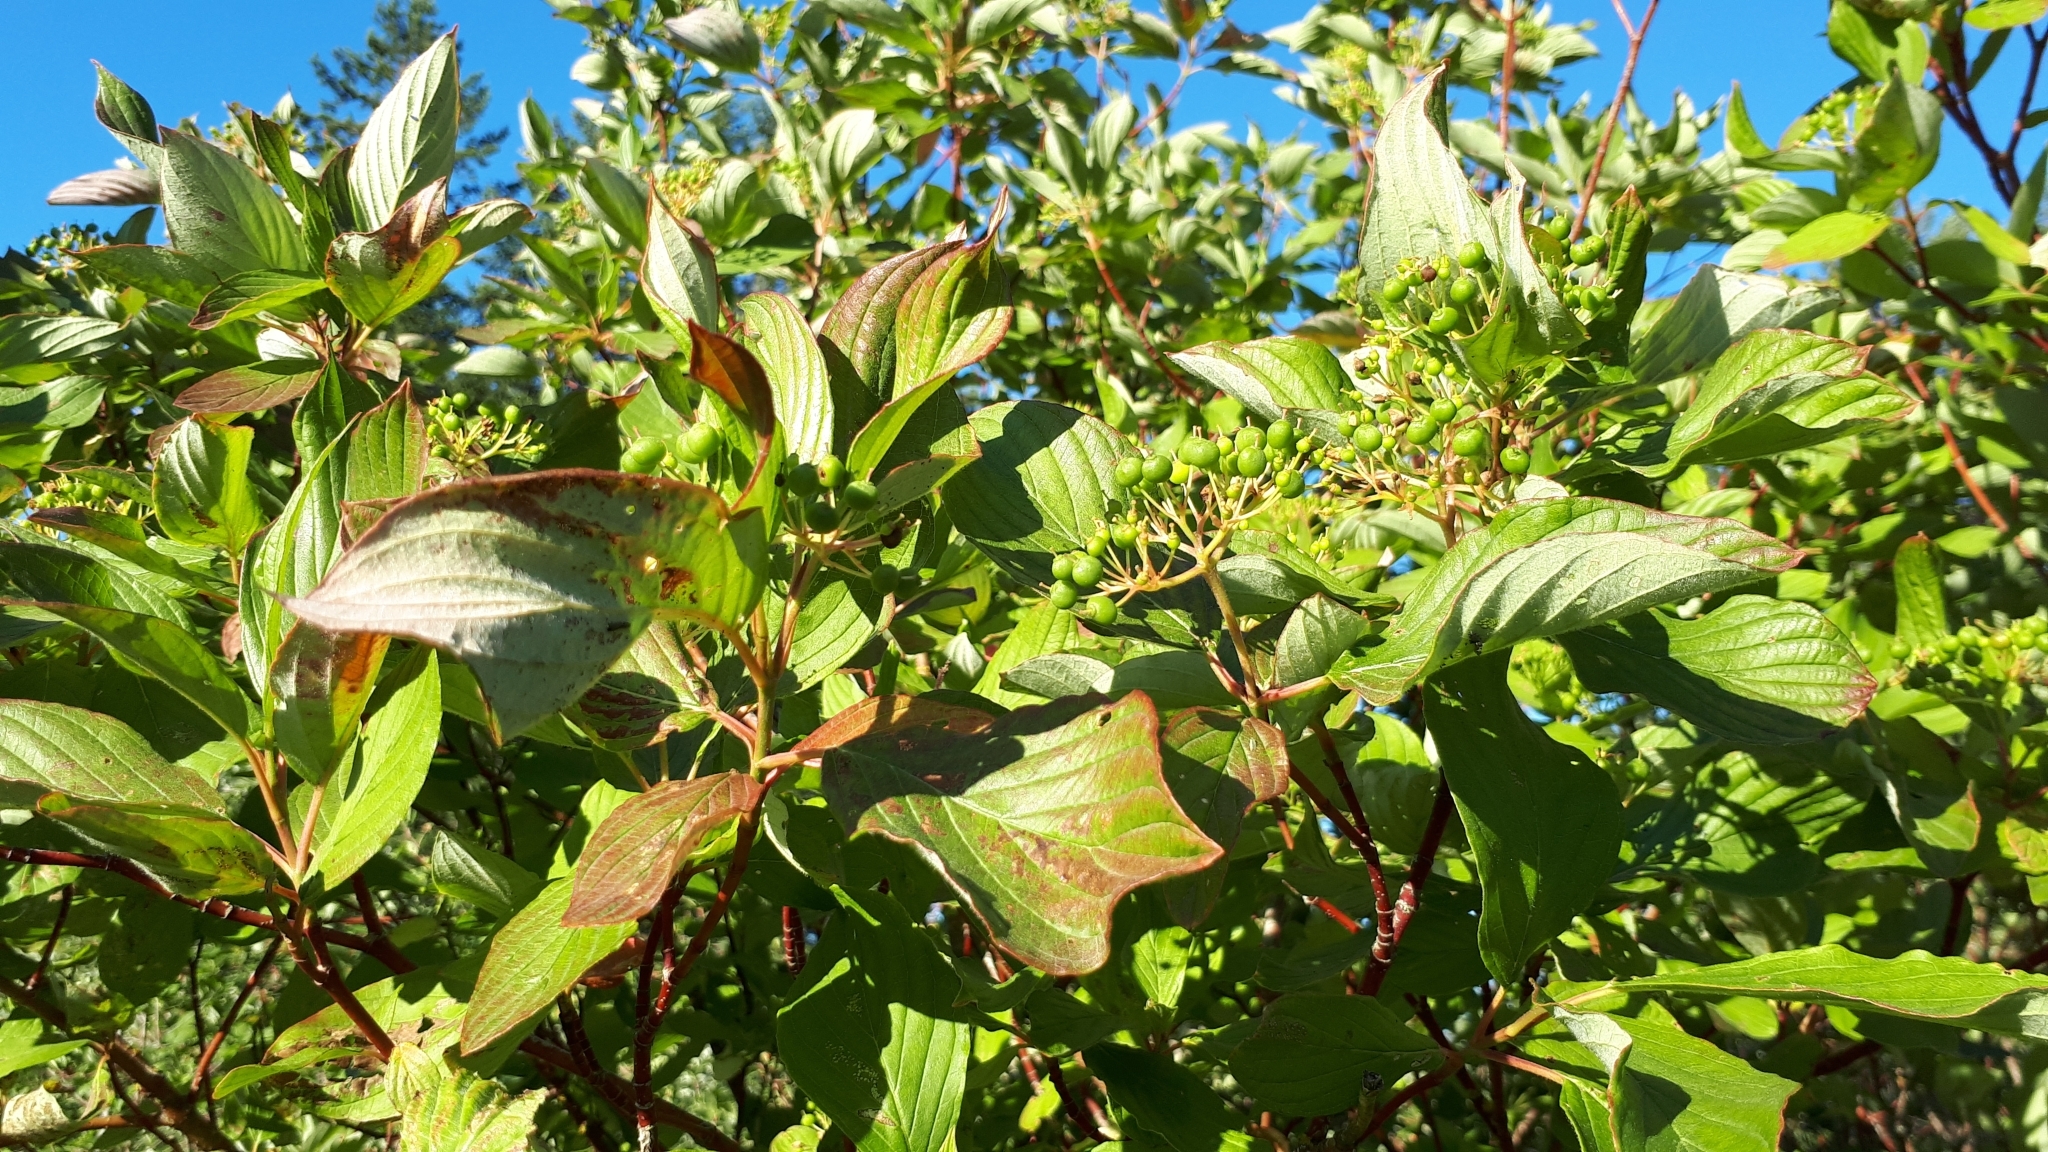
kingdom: Plantae
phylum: Tracheophyta
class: Magnoliopsida
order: Cornales
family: Cornaceae
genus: Cornus
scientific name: Cornus sericea
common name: Red-osier dogwood
